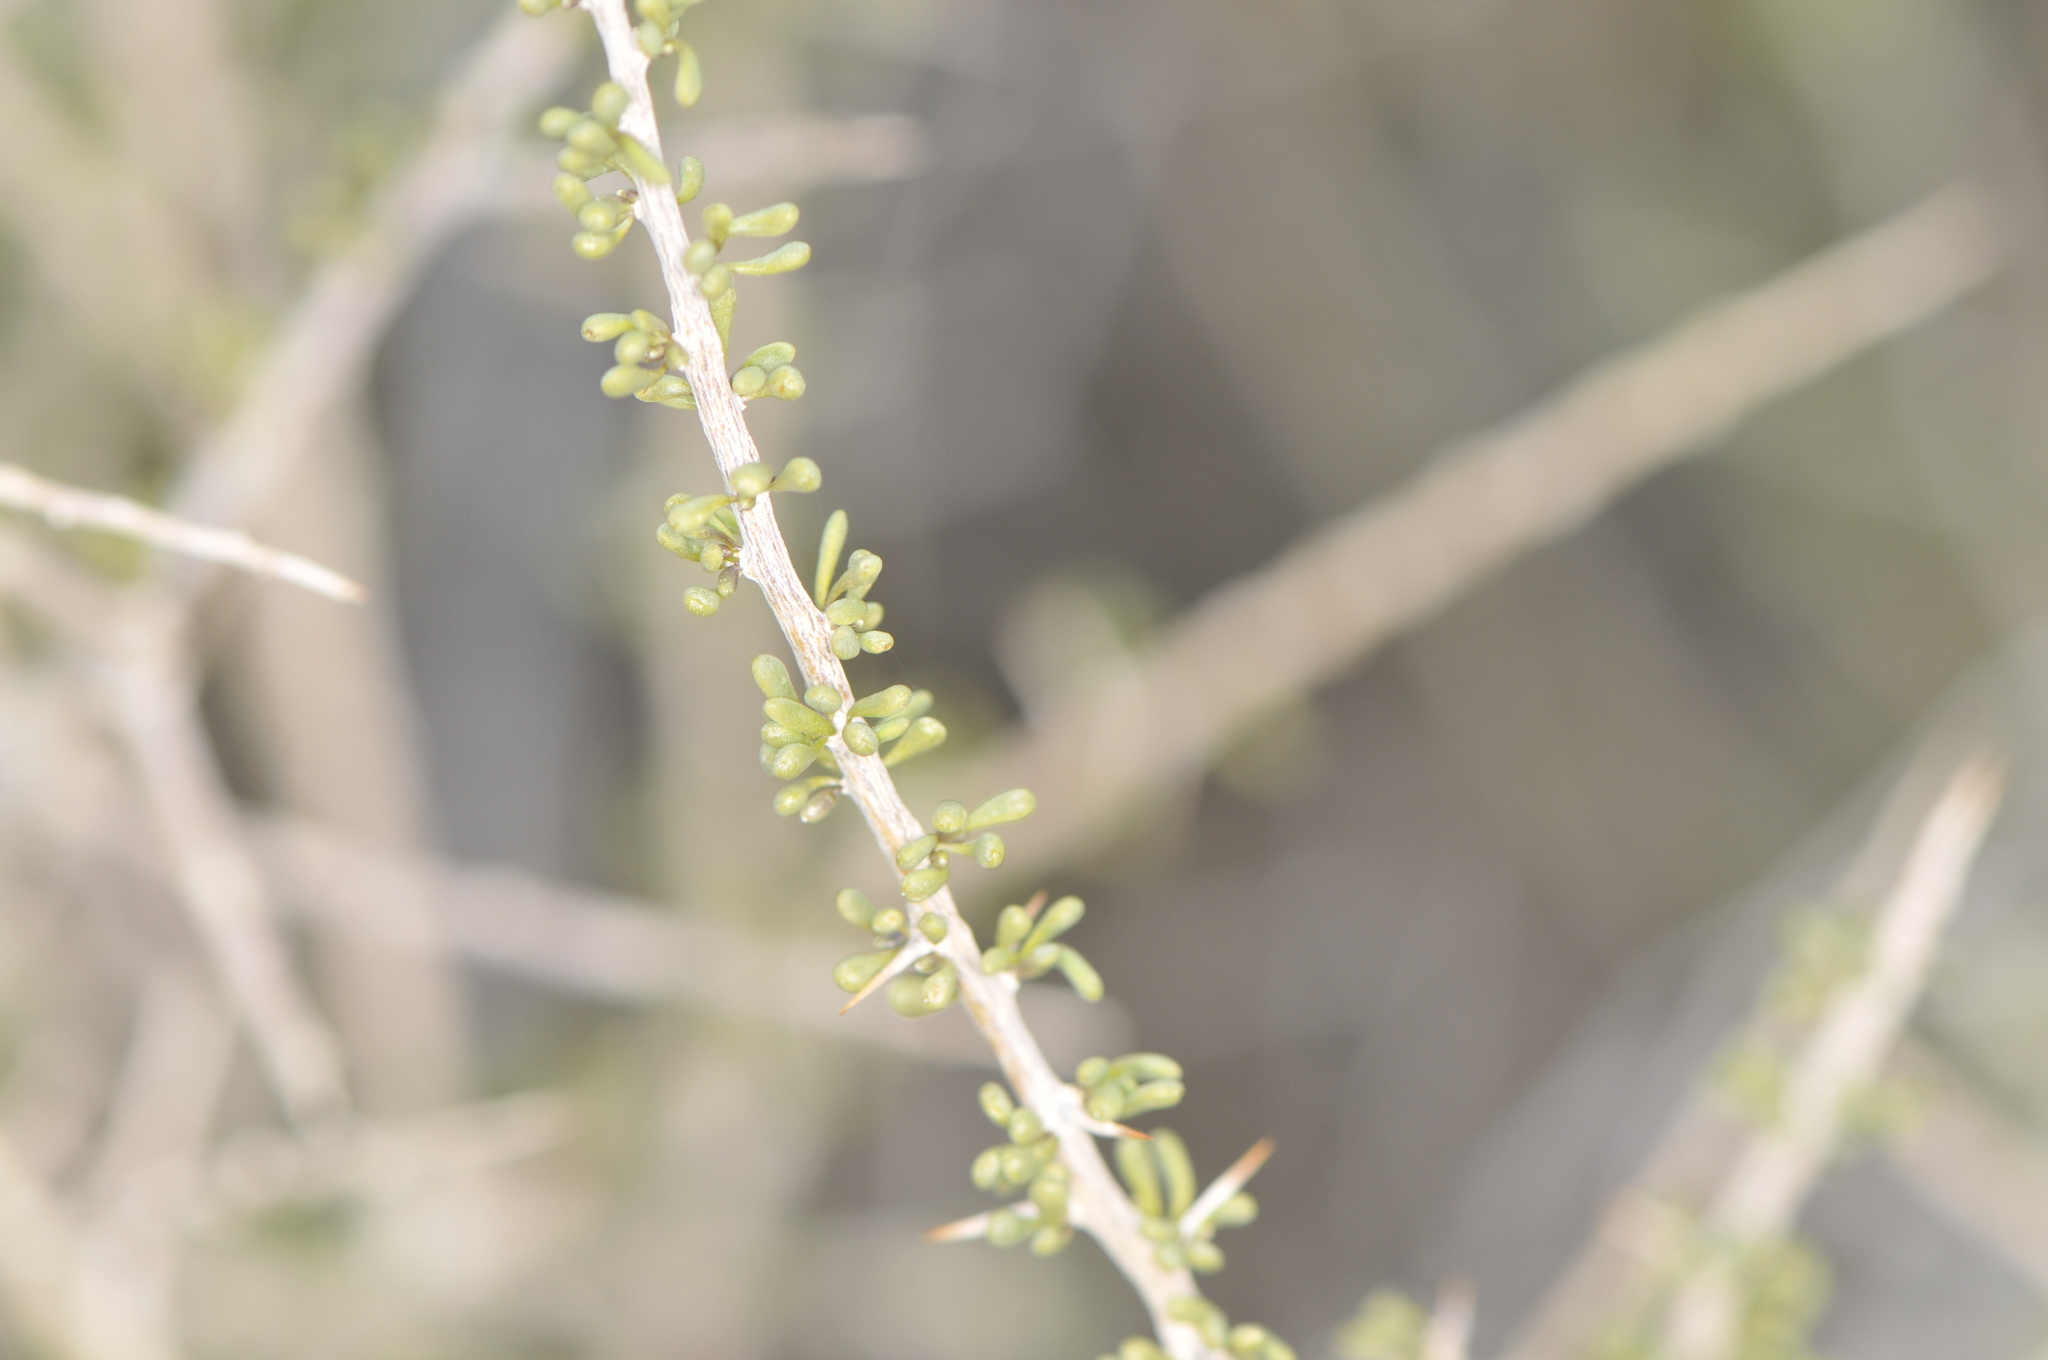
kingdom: Plantae
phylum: Tracheophyta
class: Magnoliopsida
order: Solanales
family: Solanaceae
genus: Lycium
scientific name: Lycium andersonii
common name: Water-jacket
